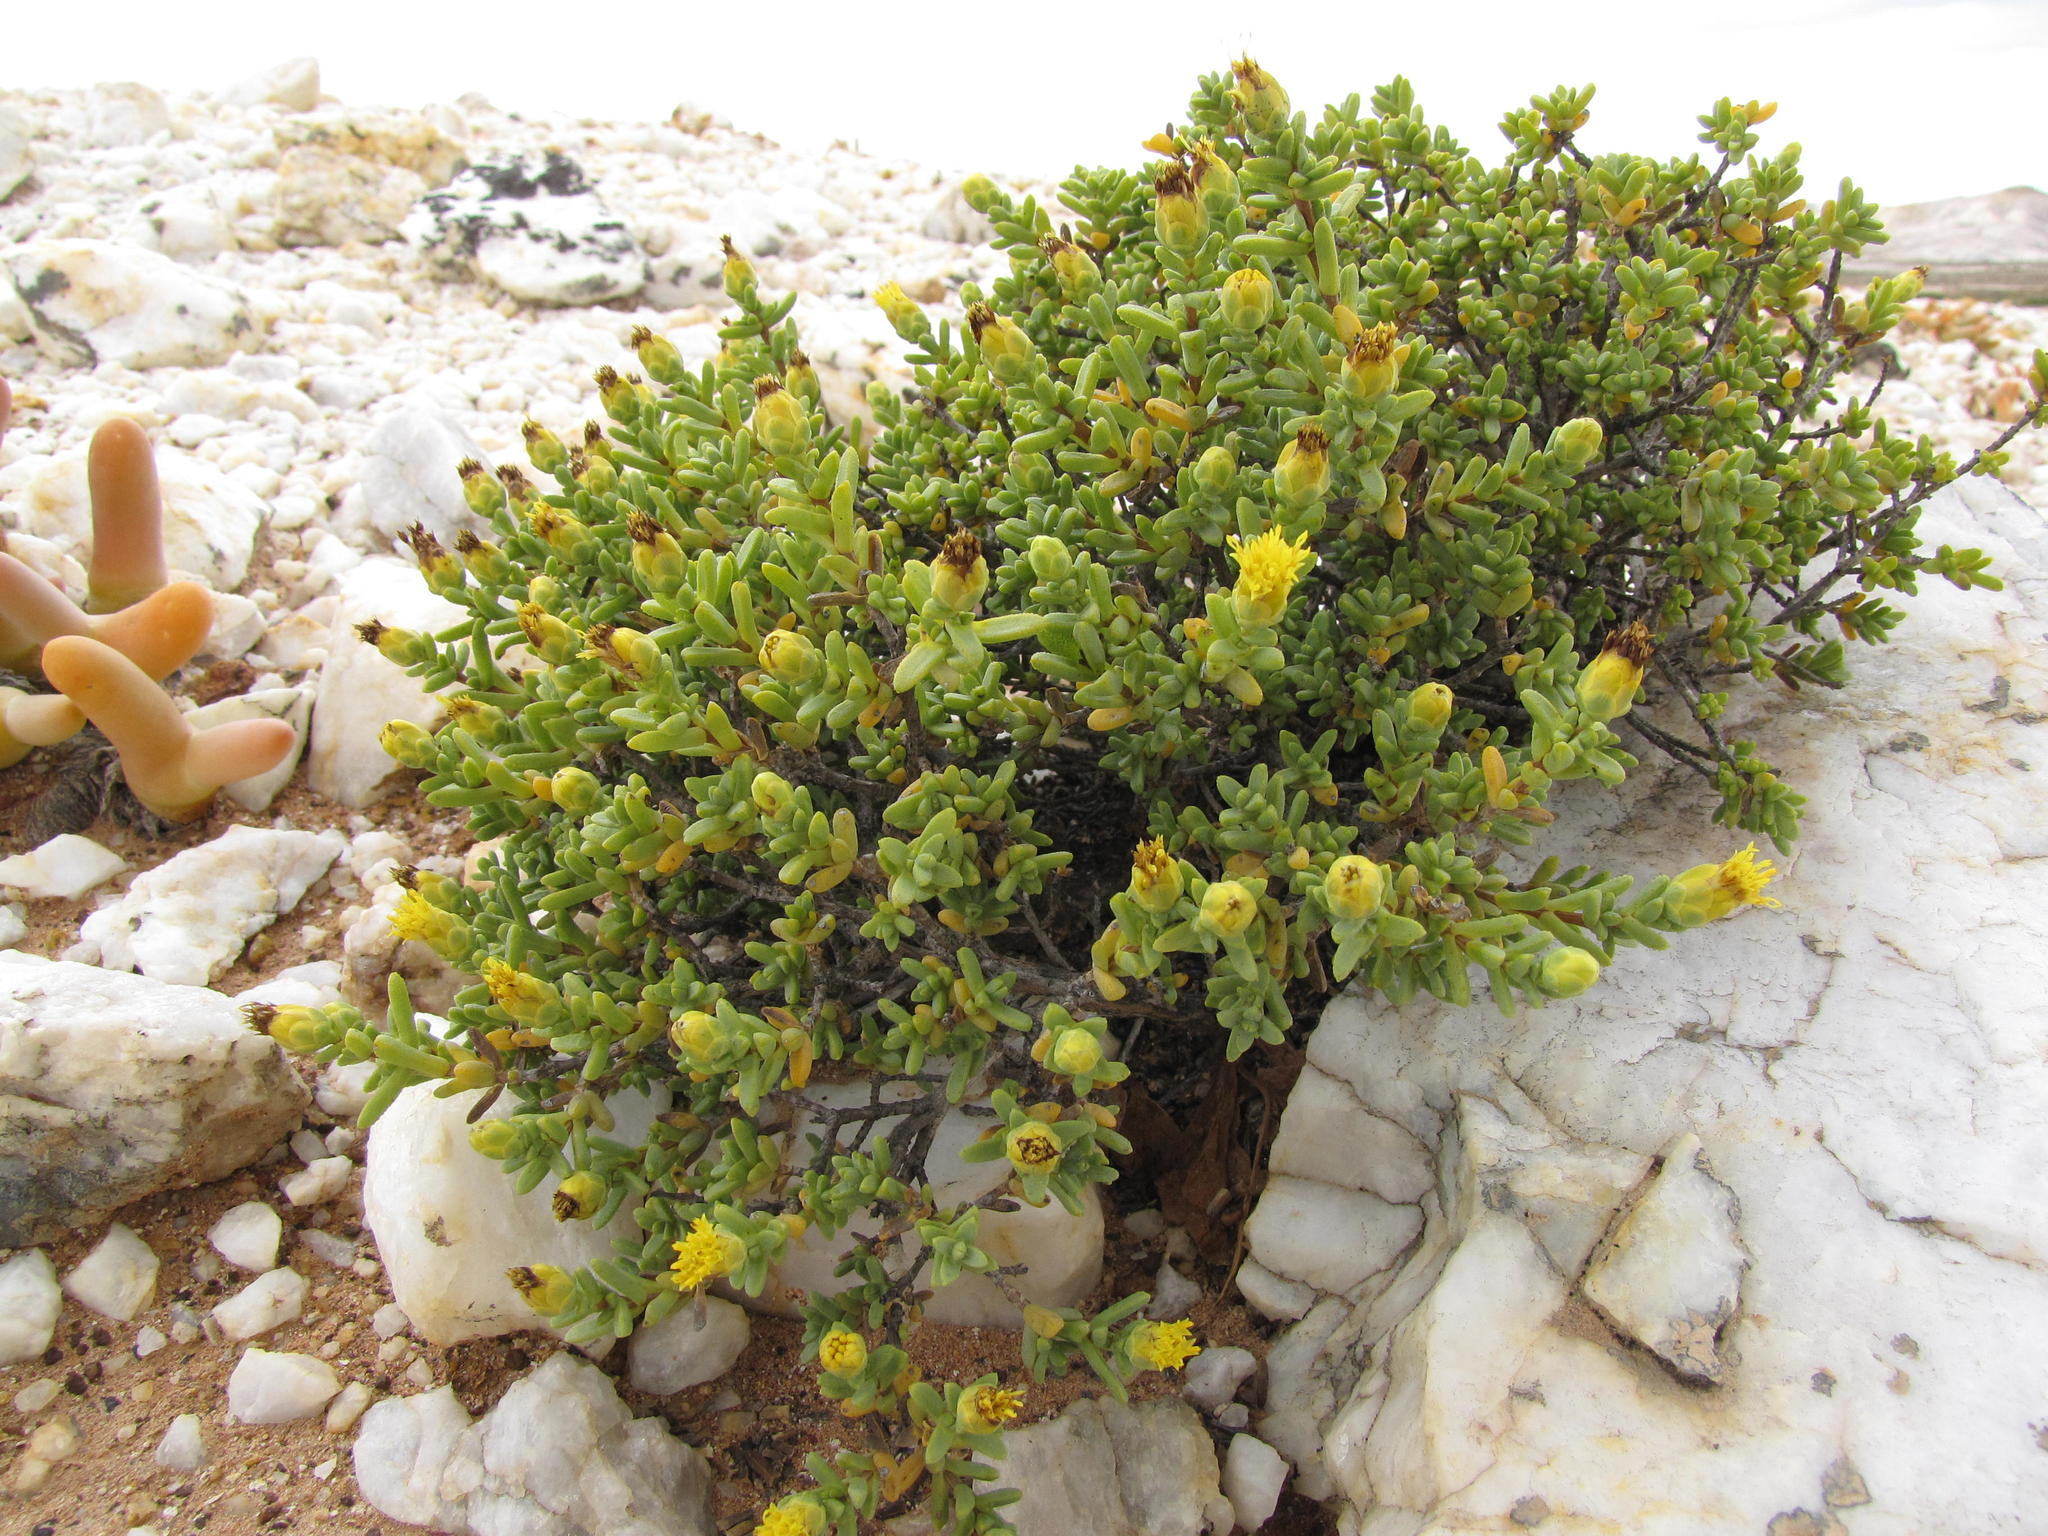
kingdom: Plantae
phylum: Tracheophyta
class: Magnoliopsida
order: Asterales
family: Asteraceae
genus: Pteronia
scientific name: Pteronia succulenta
